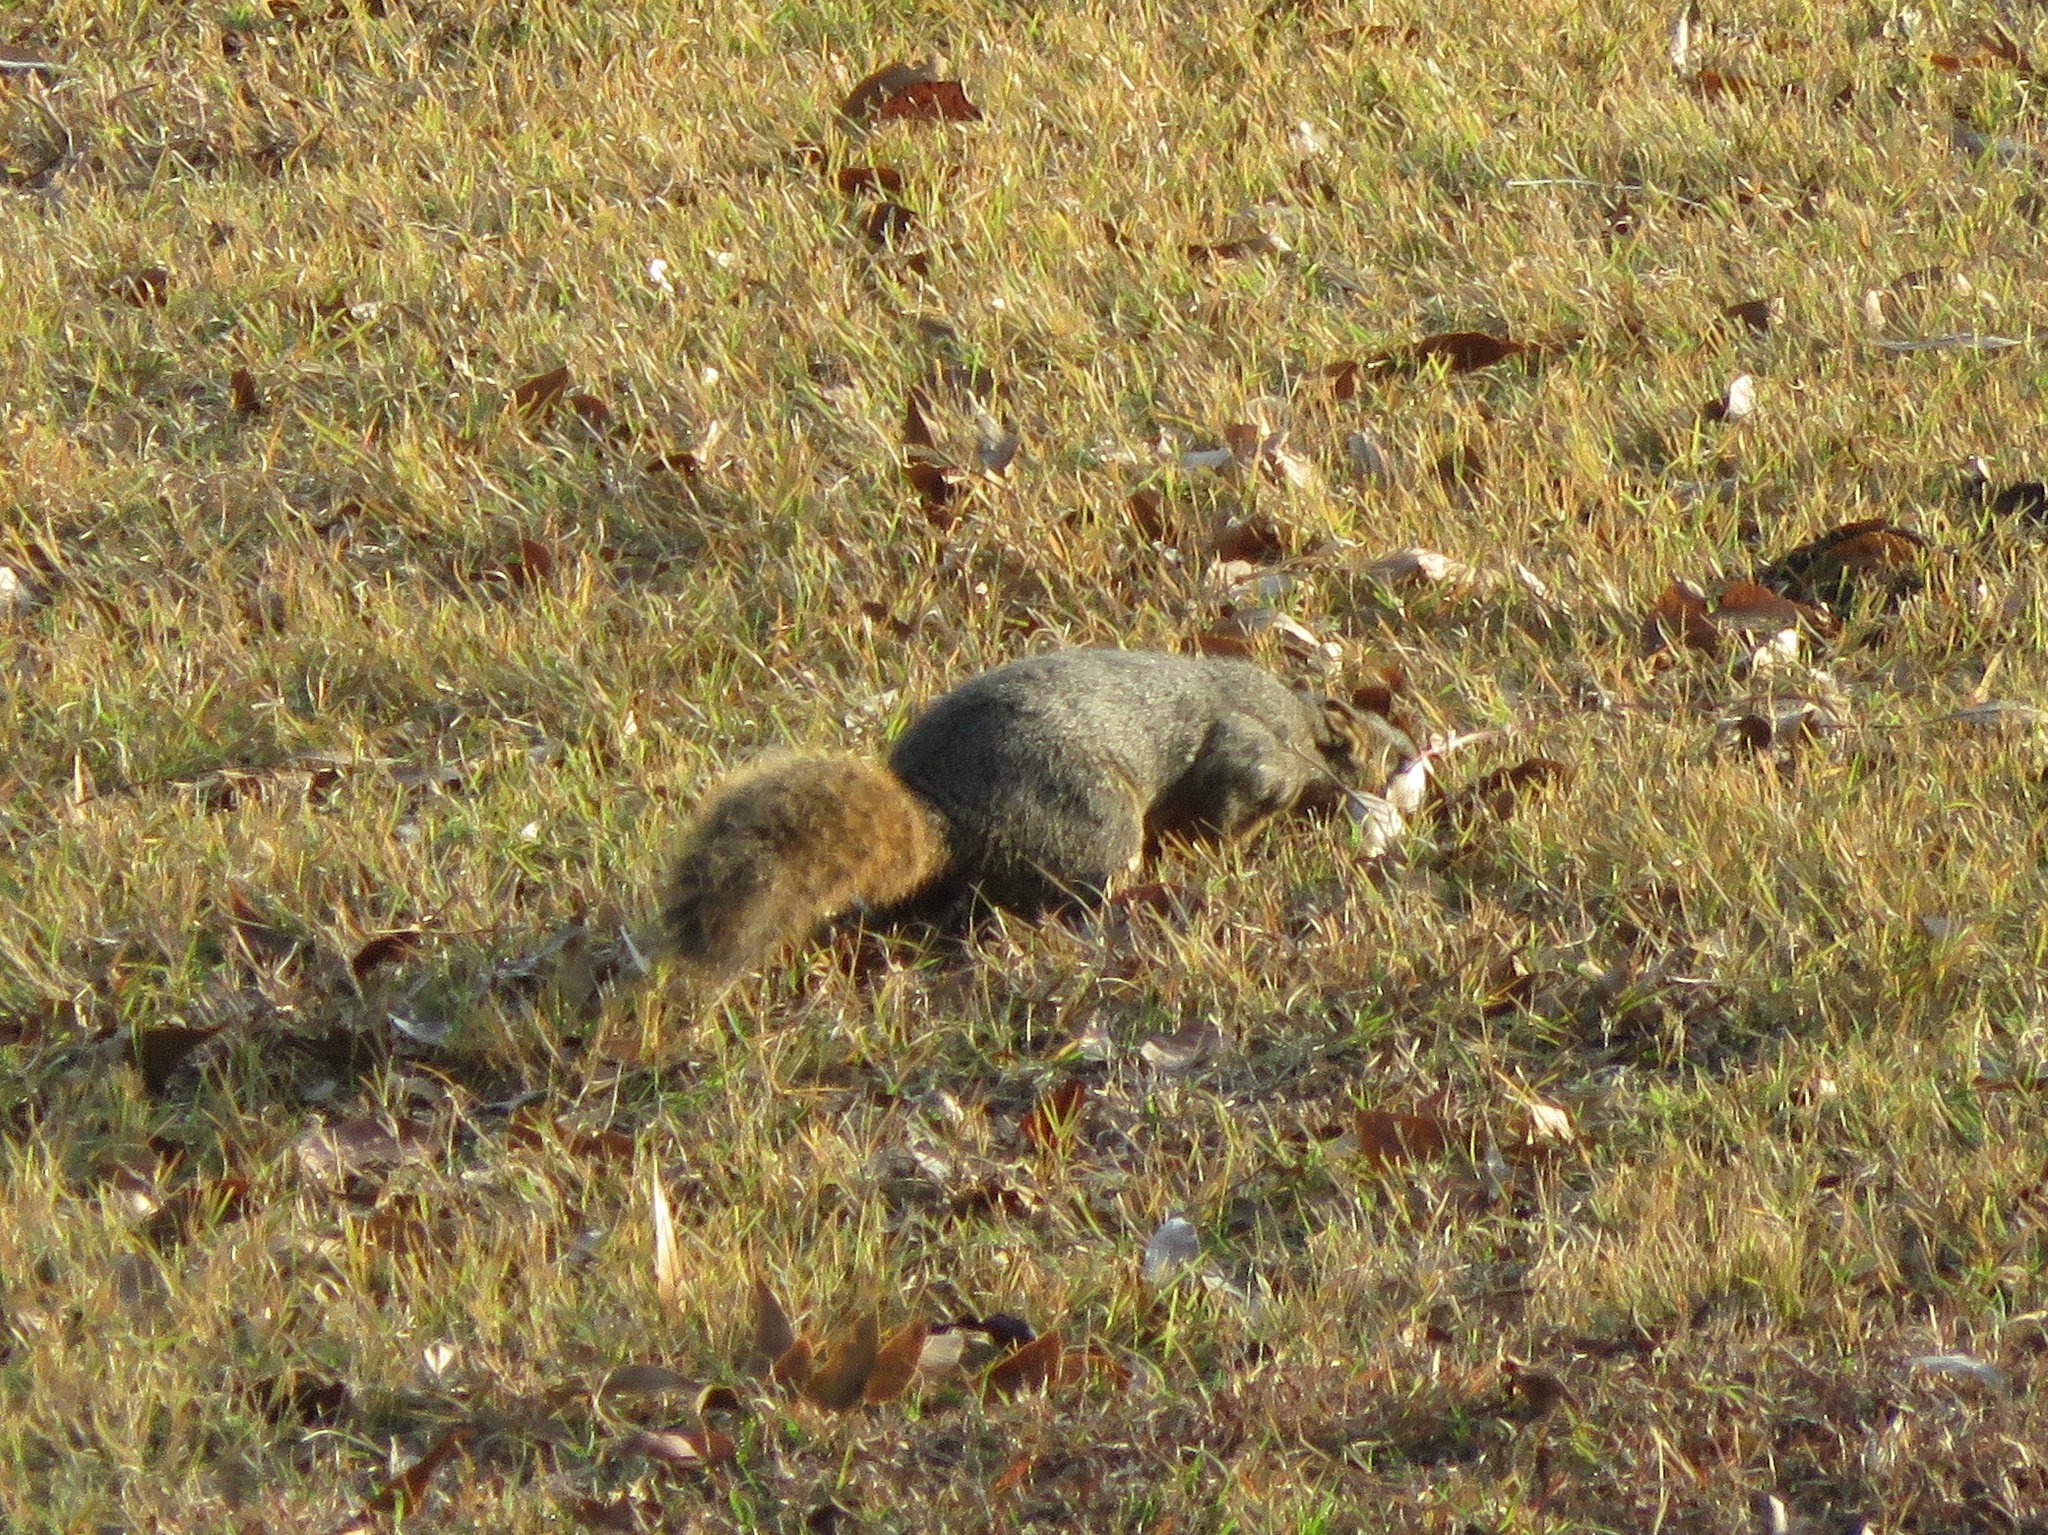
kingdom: Animalia
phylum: Chordata
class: Mammalia
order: Rodentia
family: Sciuridae
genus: Sciurus
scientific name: Sciurus niger
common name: Fox squirrel
